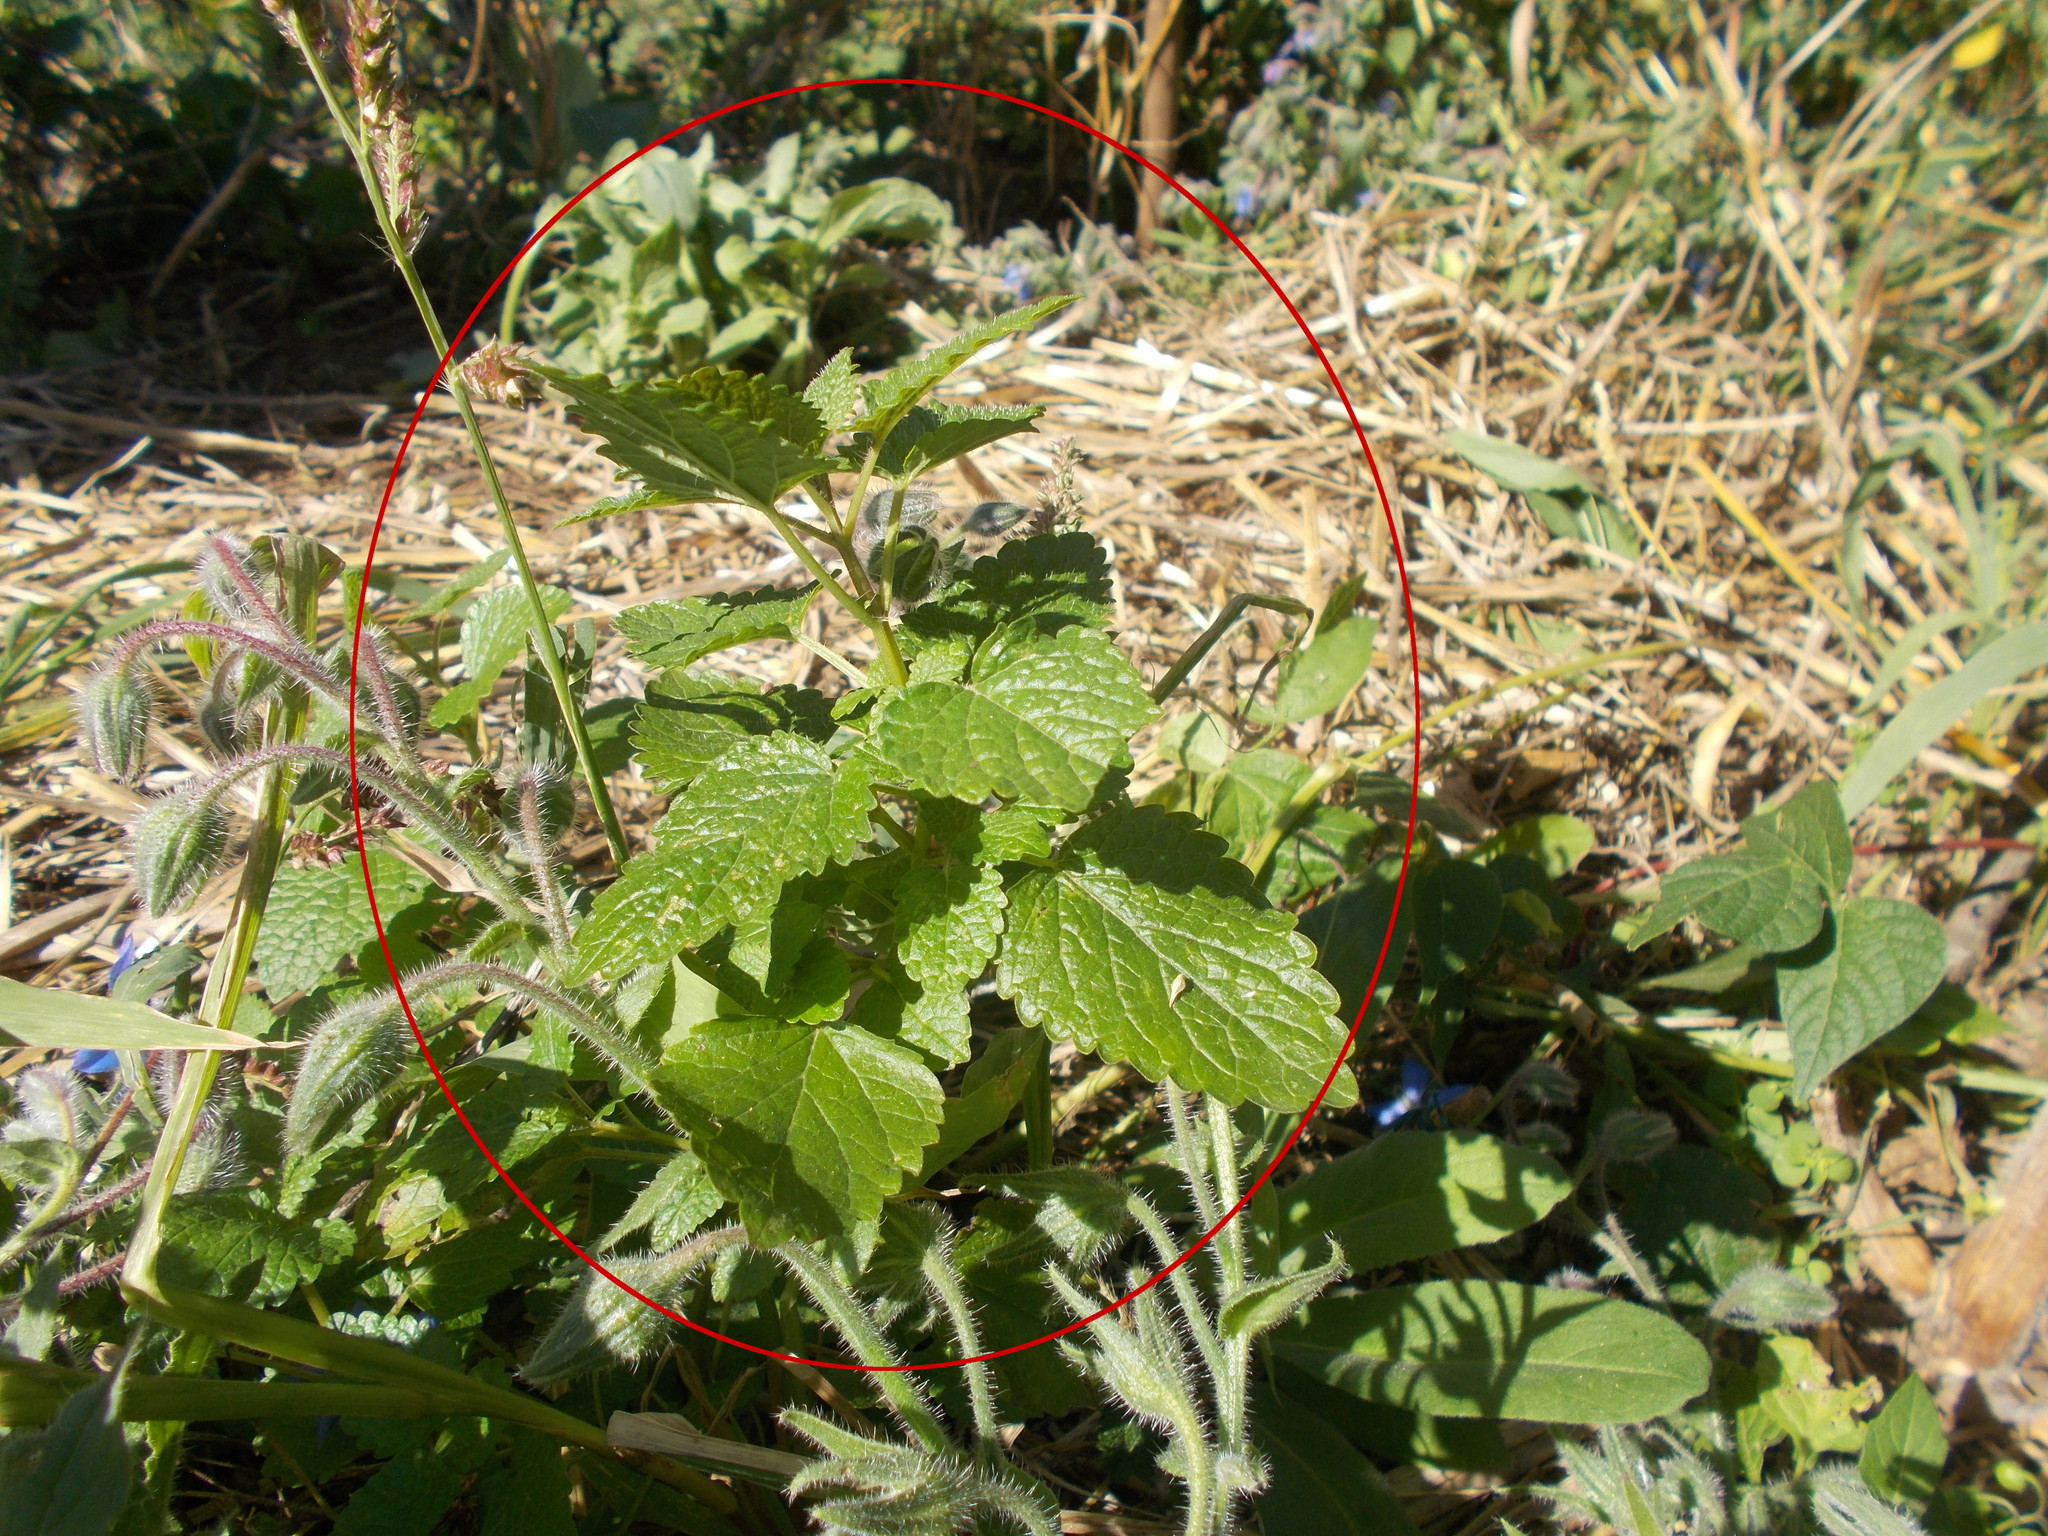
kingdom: Plantae
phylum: Tracheophyta
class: Magnoliopsida
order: Lamiales
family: Lamiaceae
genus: Melissa
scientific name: Melissa officinalis
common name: Balm
